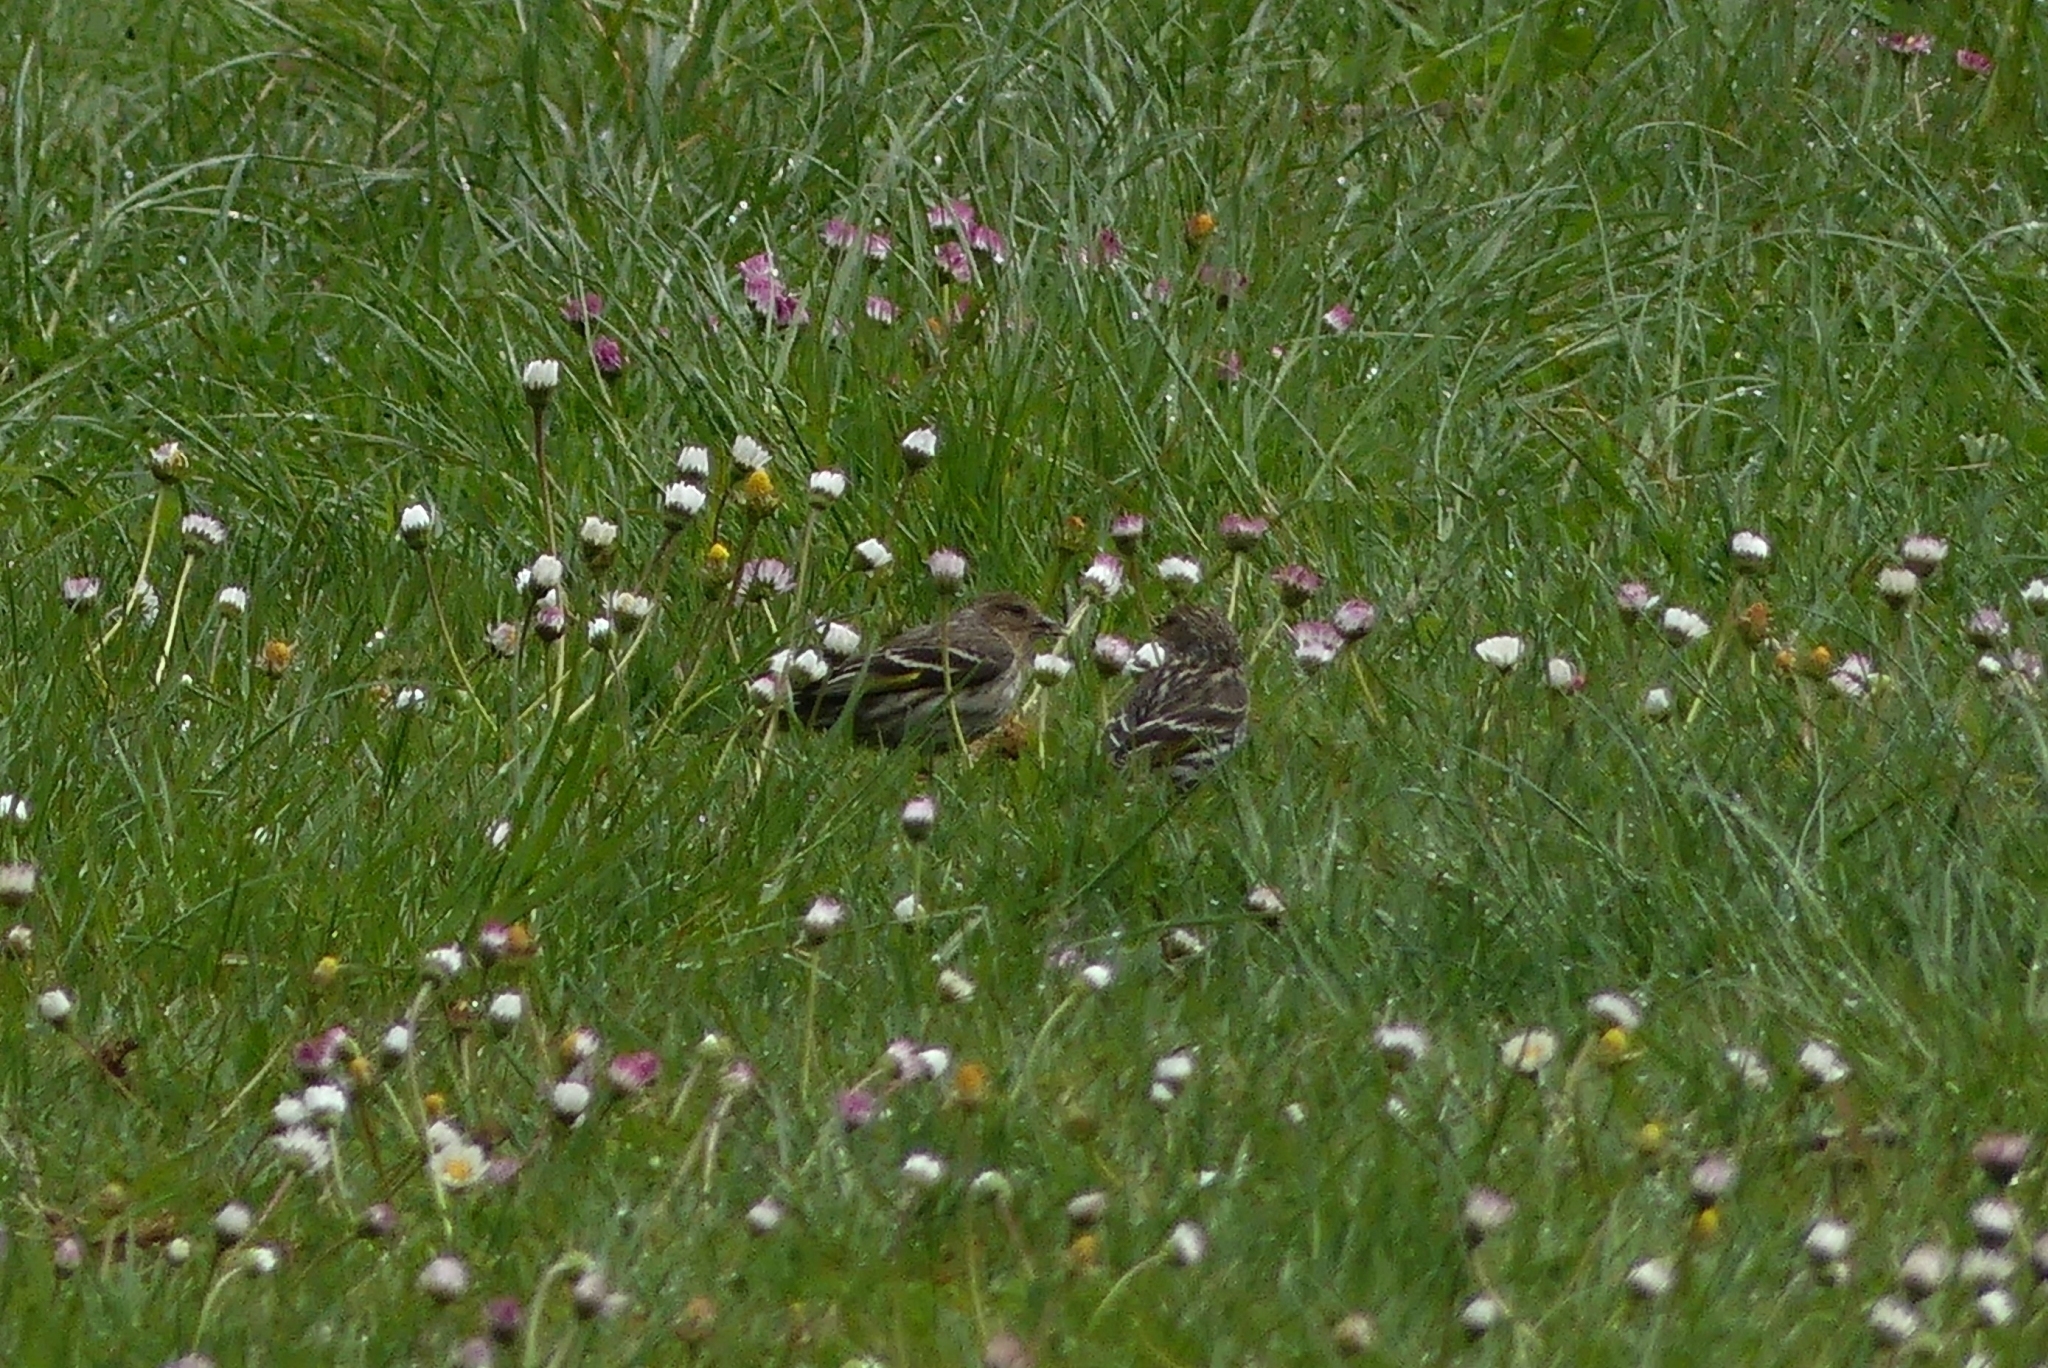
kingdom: Animalia
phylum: Chordata
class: Aves
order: Passeriformes
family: Fringillidae
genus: Spinus
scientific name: Spinus pinus
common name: Pine siskin
